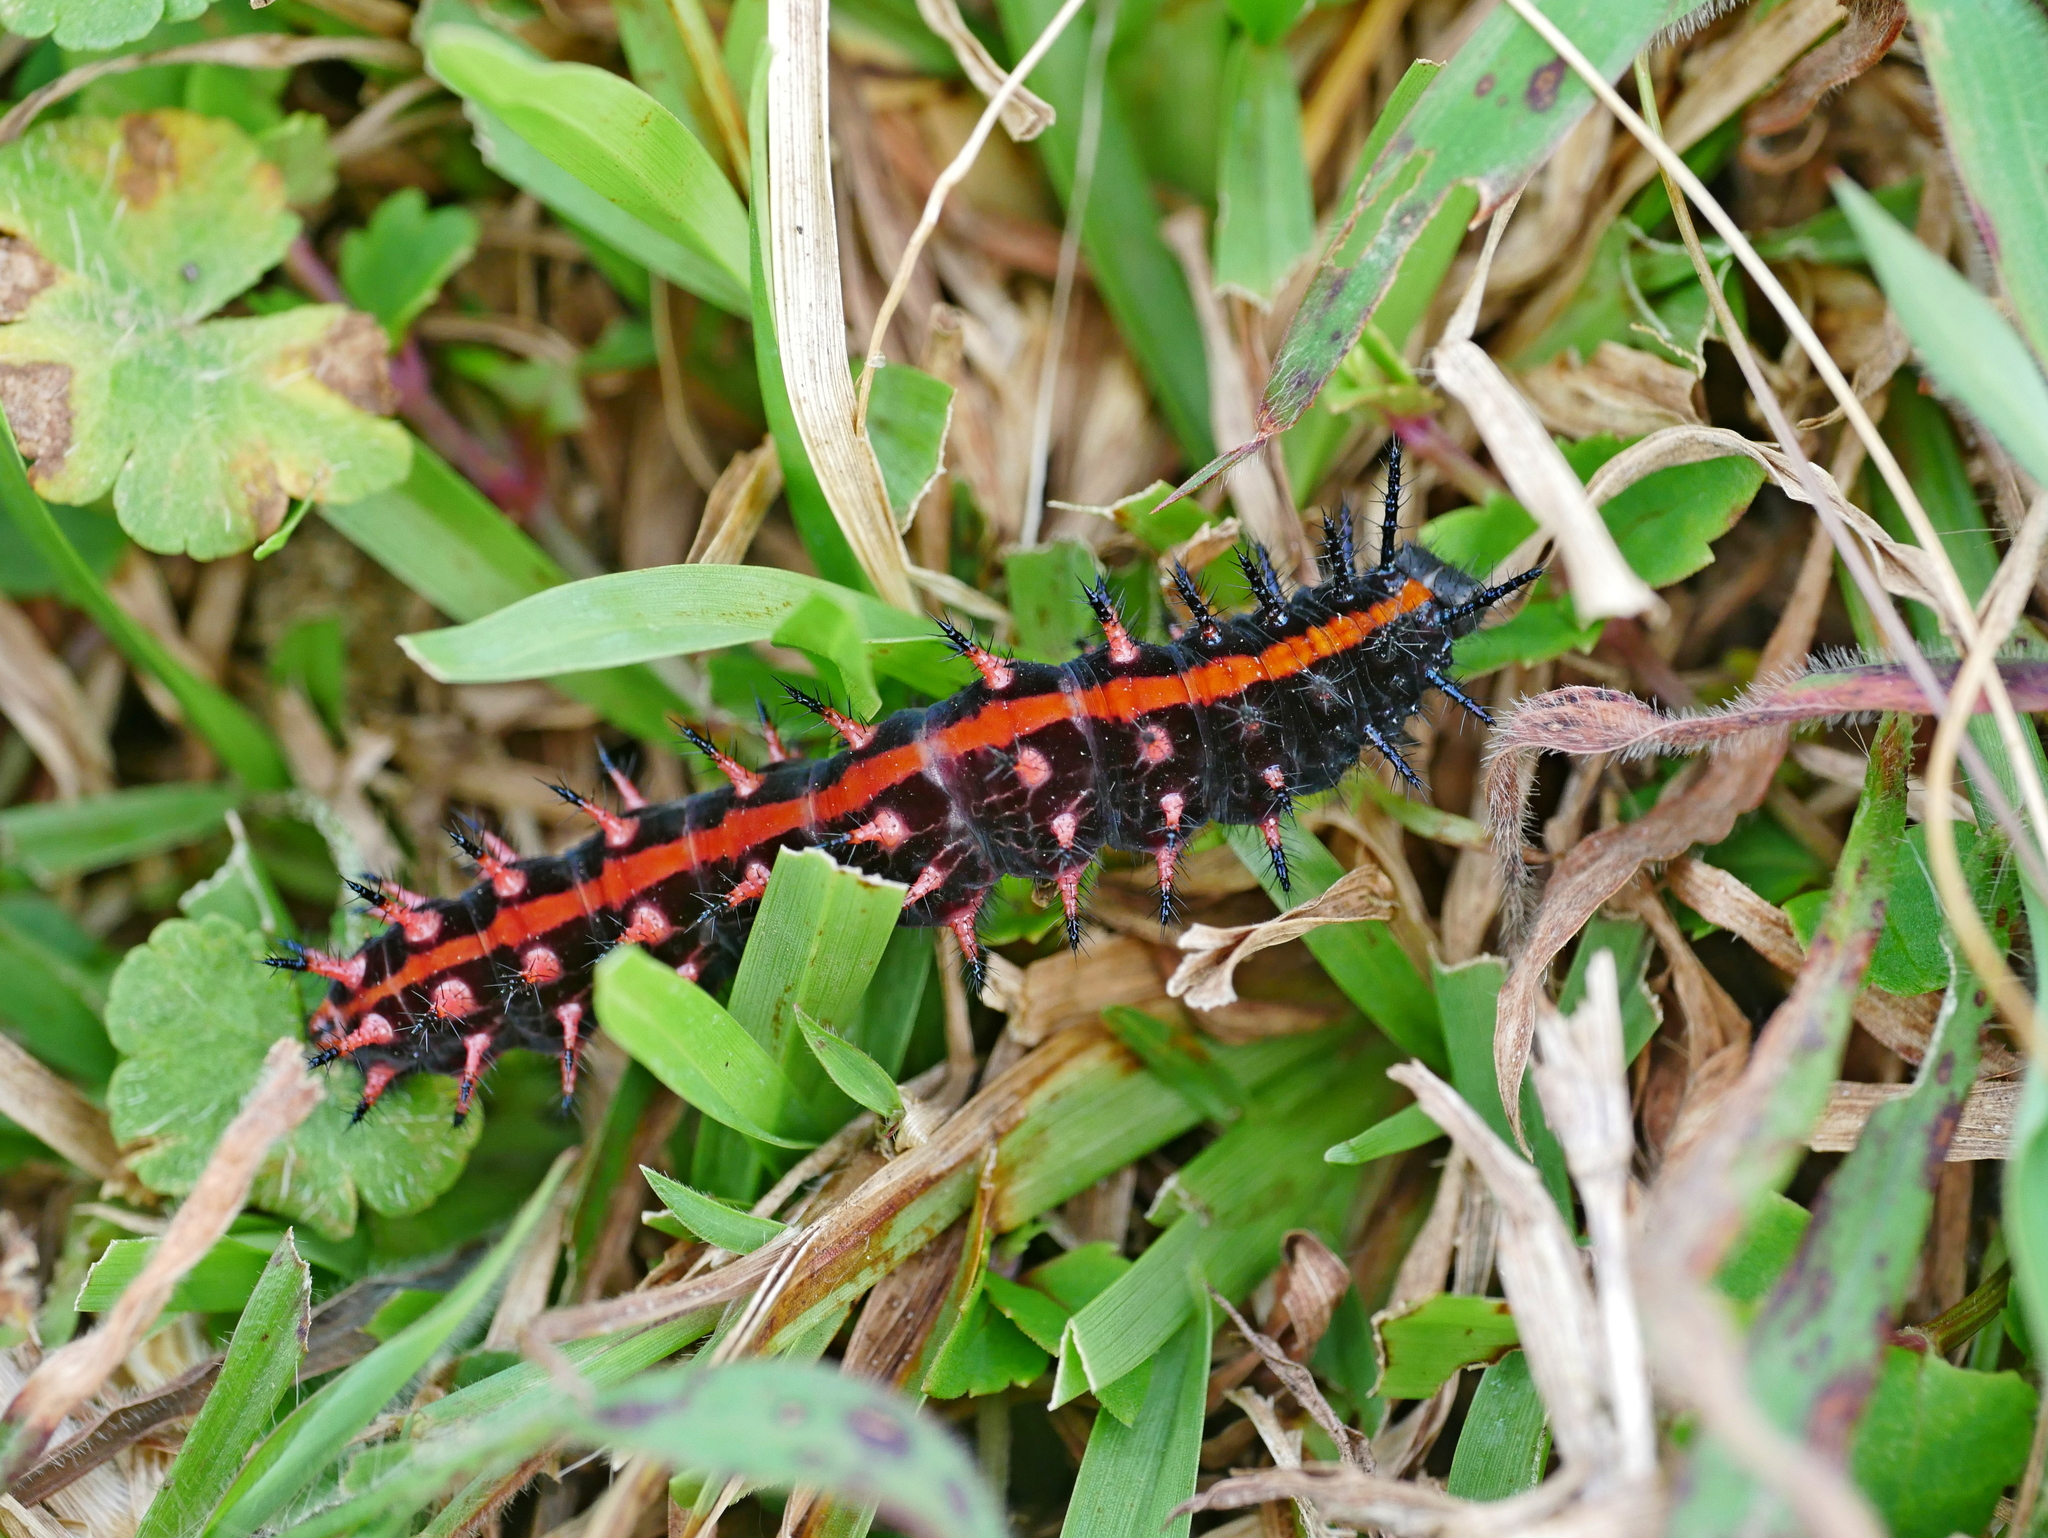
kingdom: Animalia
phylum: Arthropoda
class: Insecta
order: Lepidoptera
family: Nymphalidae
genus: Argynnis
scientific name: Argynnis hyperbius
